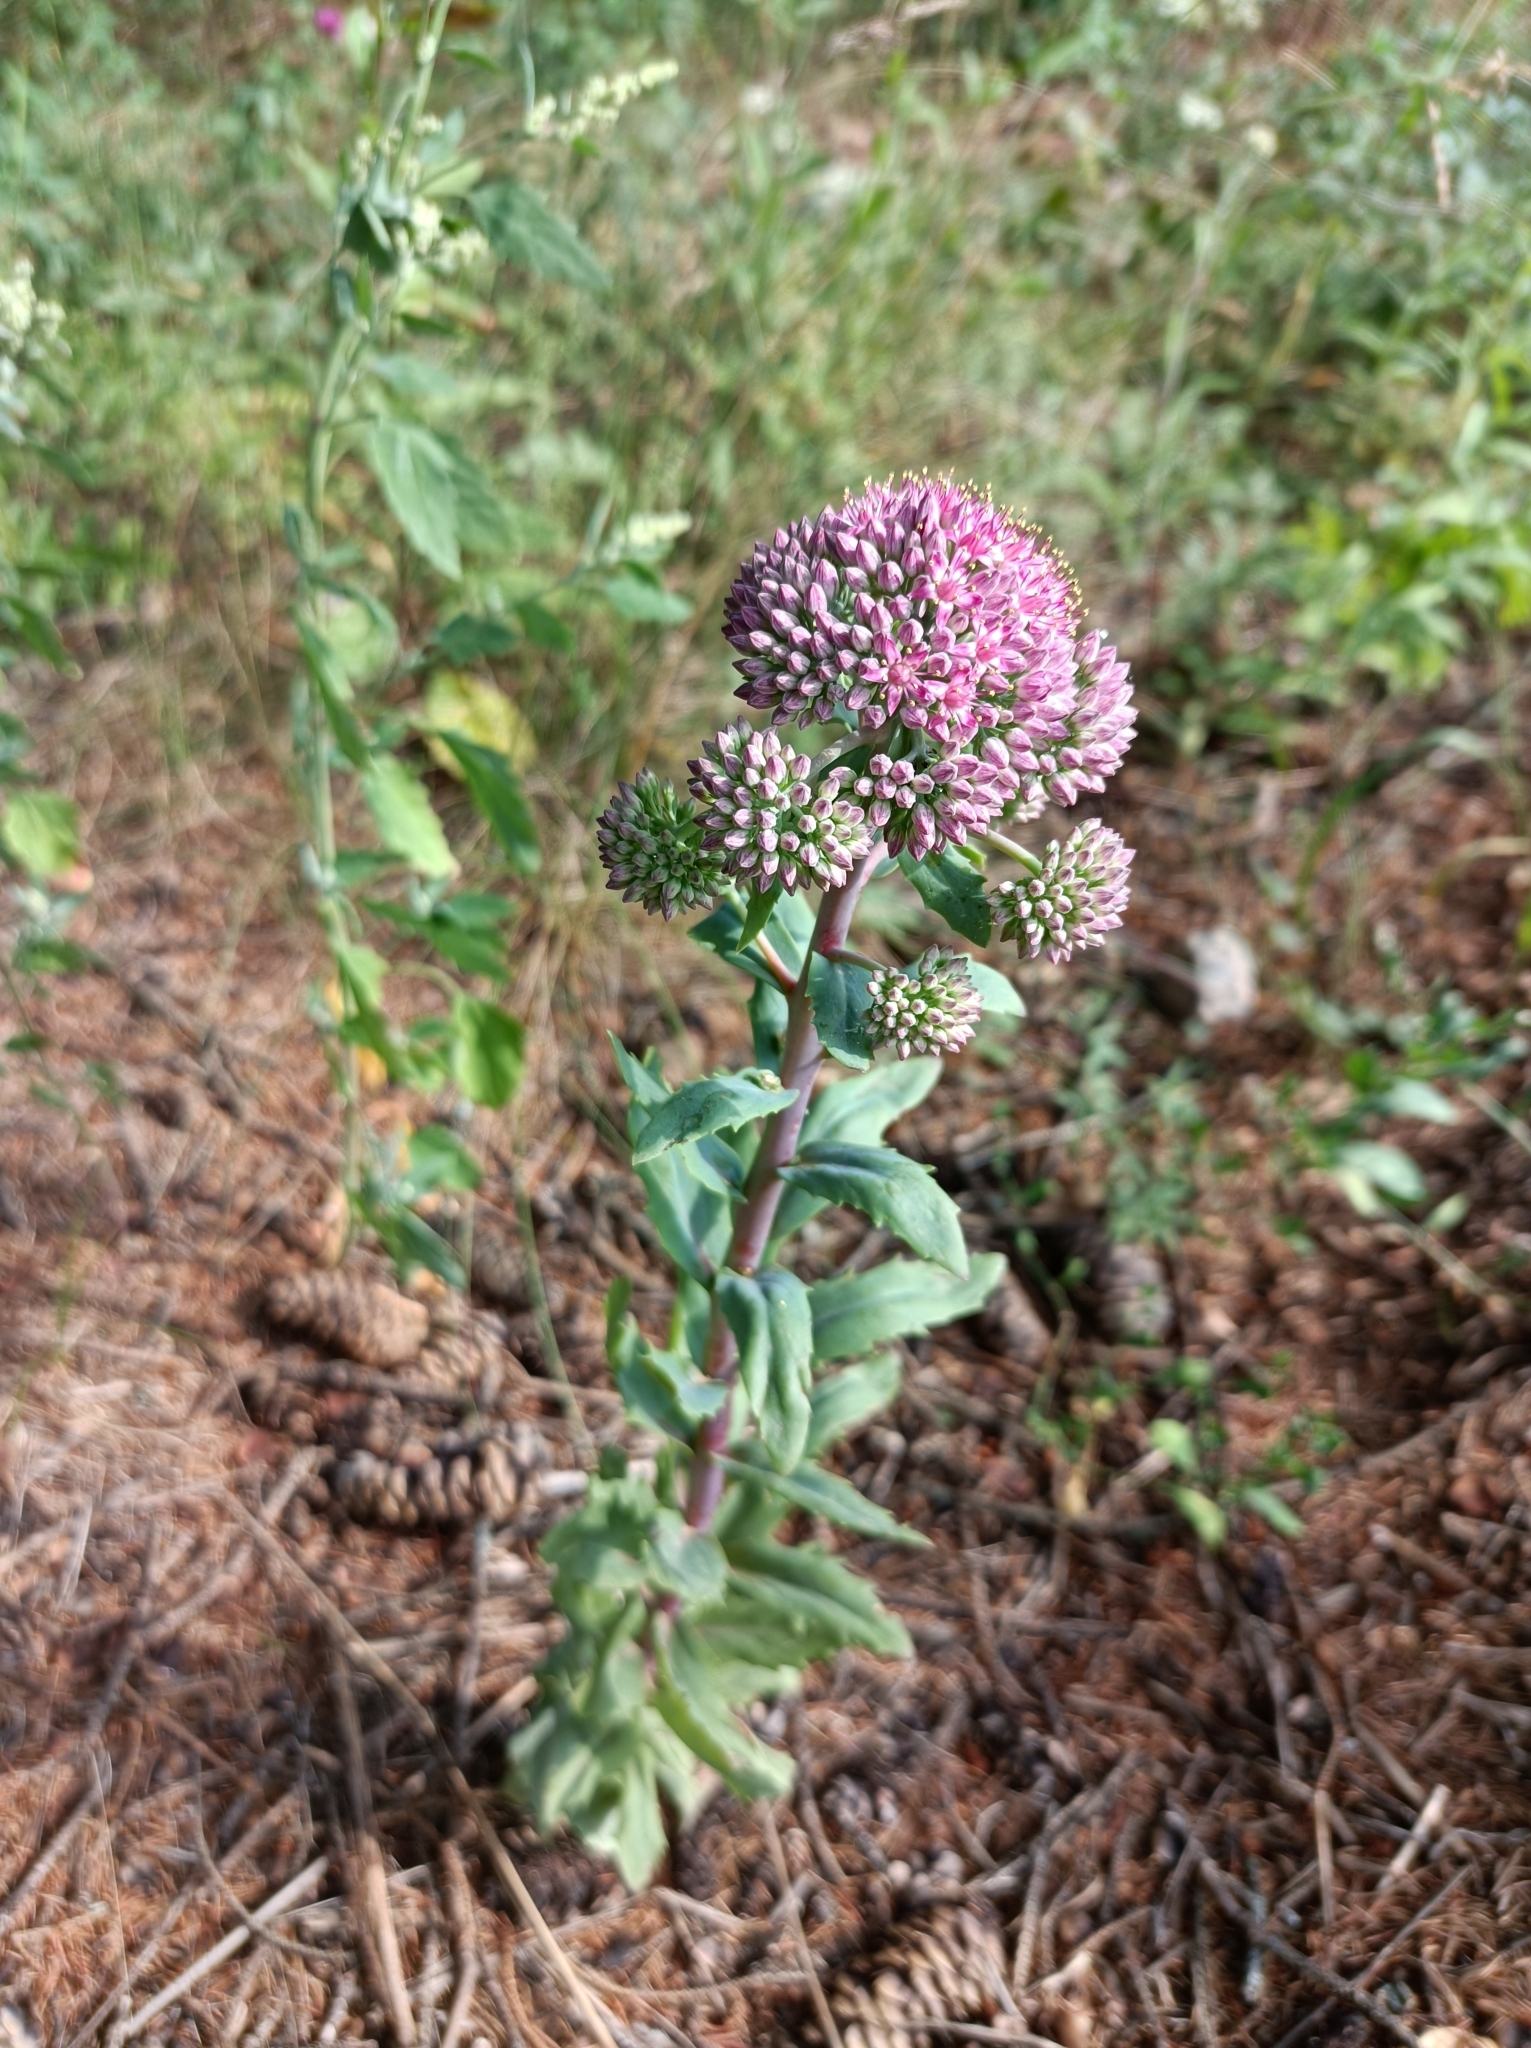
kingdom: Plantae
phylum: Tracheophyta
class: Magnoliopsida
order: Saxifragales
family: Crassulaceae
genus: Hylotelephium
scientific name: Hylotelephium telephium
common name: Live-forever
